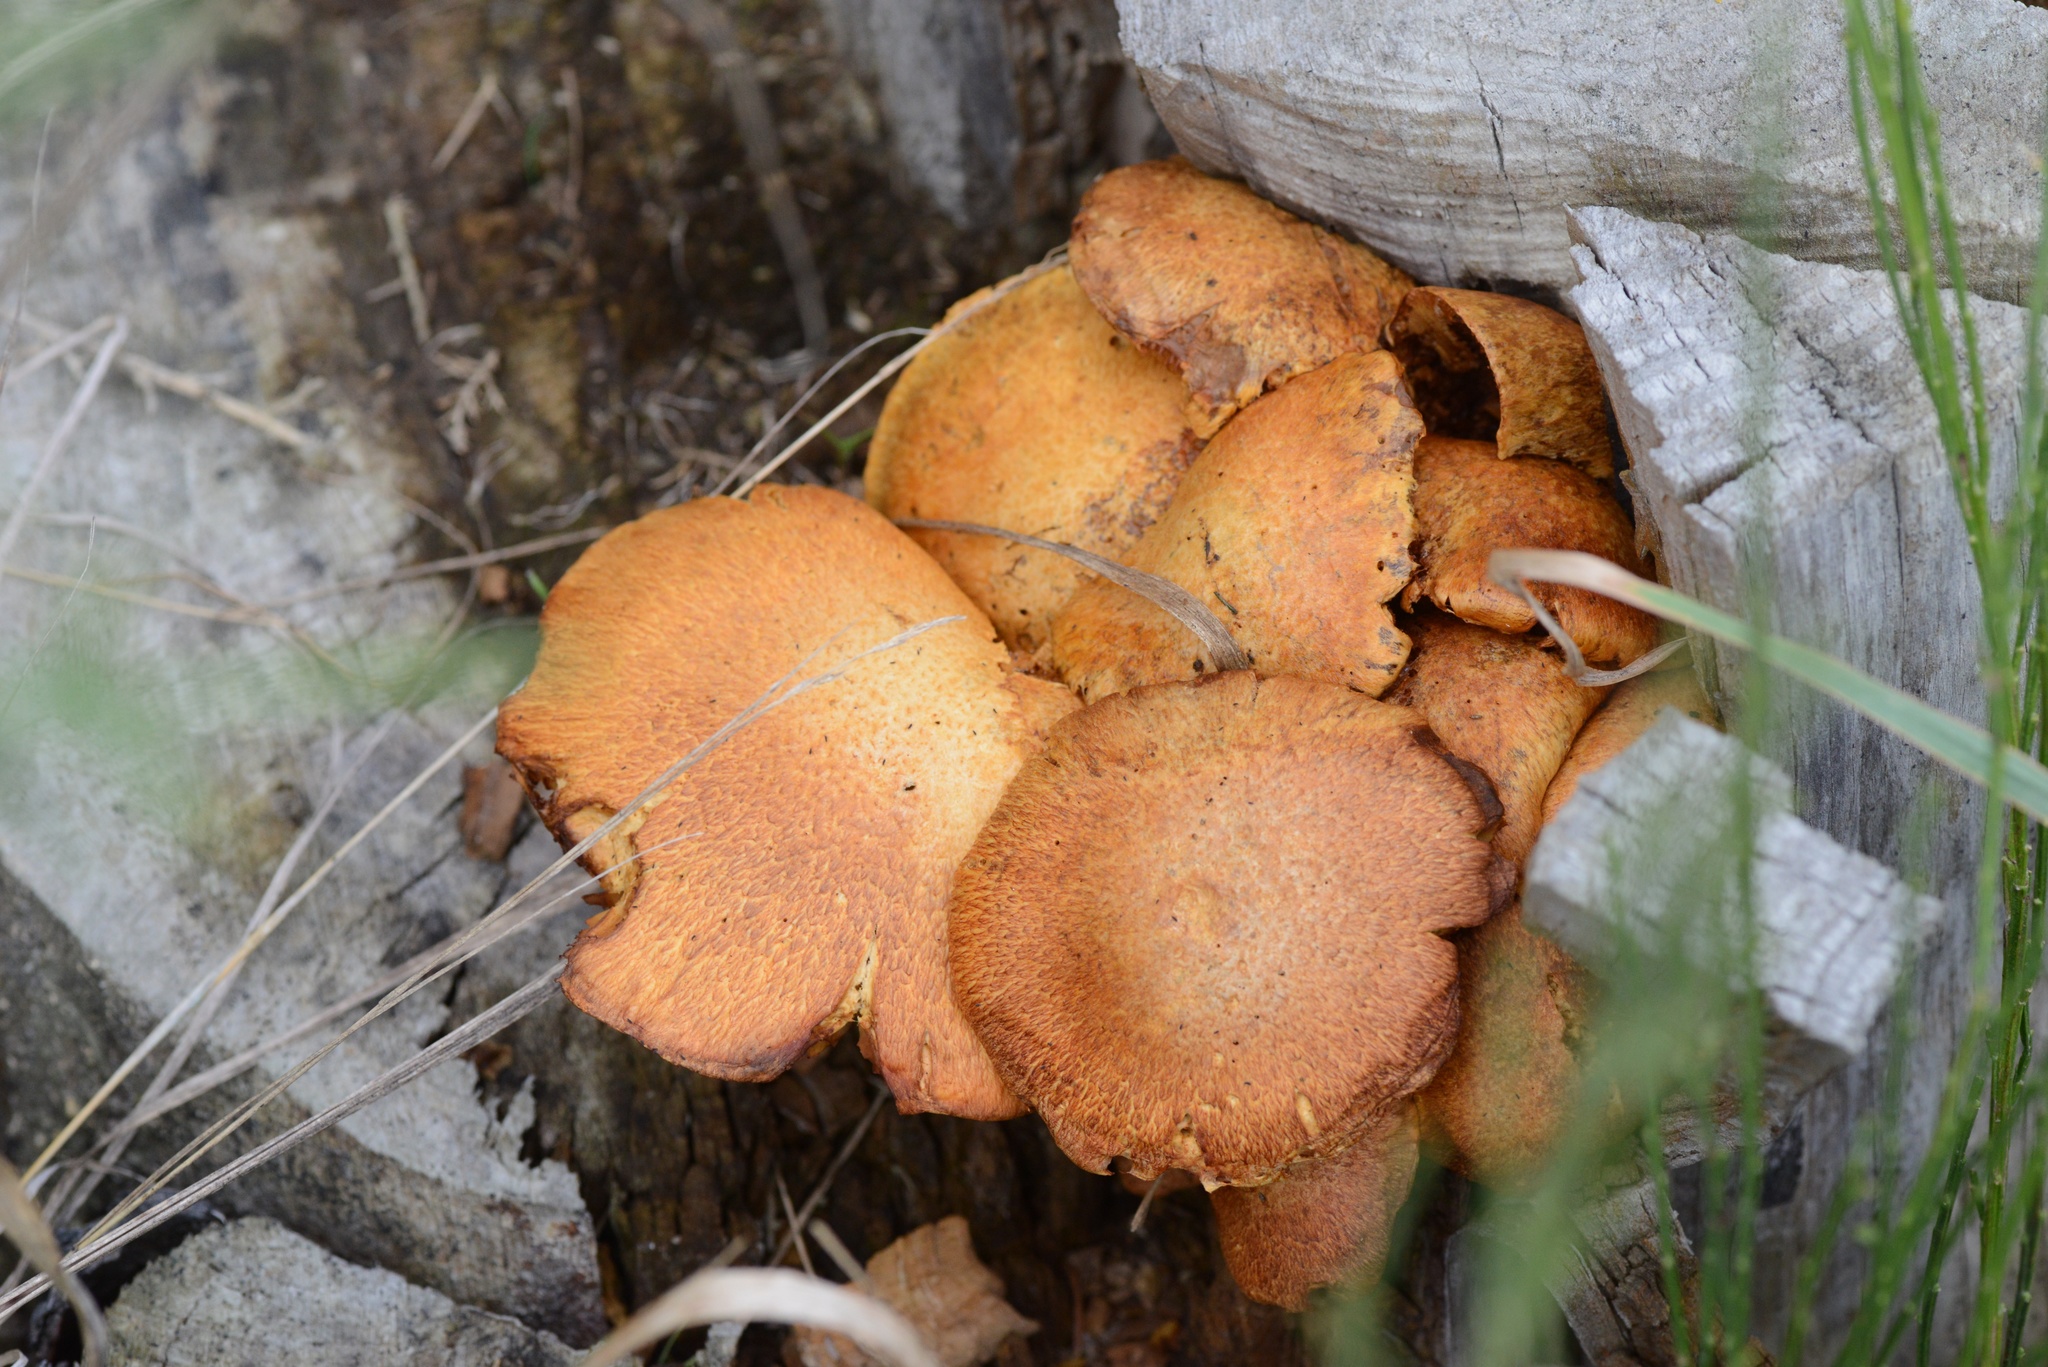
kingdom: Fungi
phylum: Basidiomycota
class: Agaricomycetes
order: Agaricales
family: Hymenogastraceae
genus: Gymnopilus
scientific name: Gymnopilus junonius
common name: Spectacular rustgill
